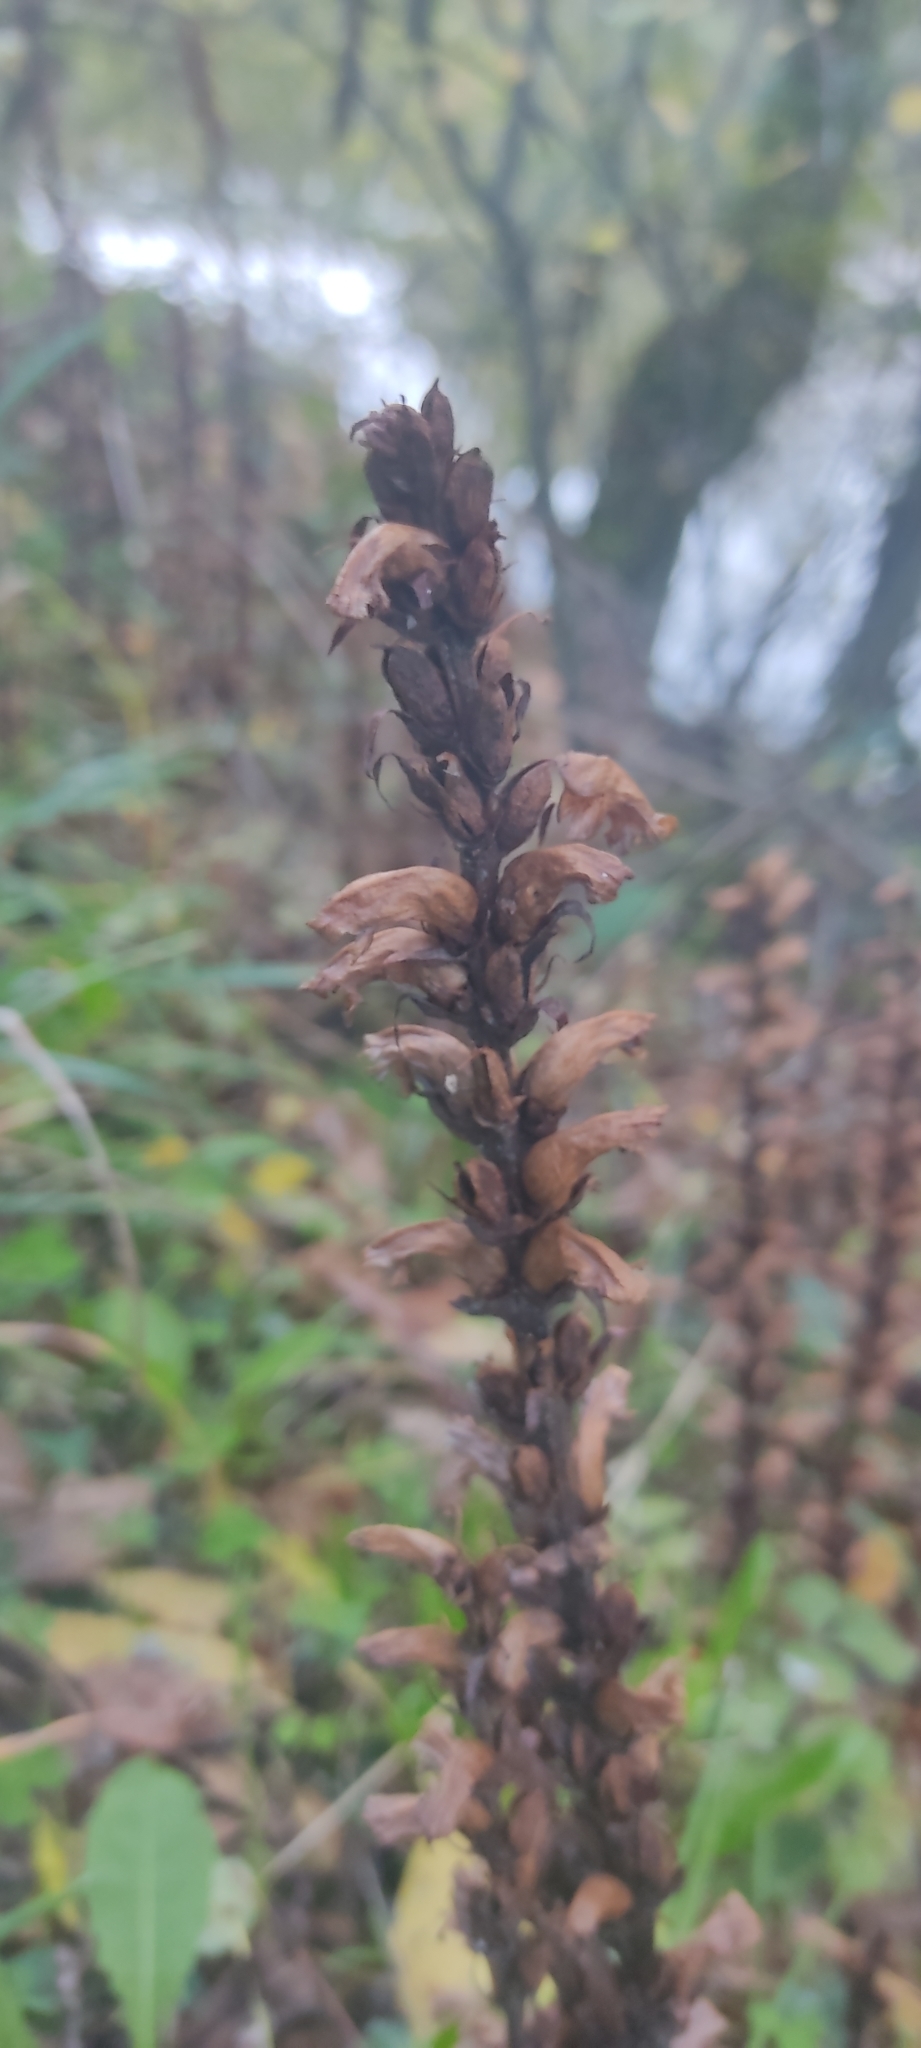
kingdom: Plantae
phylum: Tracheophyta
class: Magnoliopsida
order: Lamiales
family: Orobanchaceae
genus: Orobanche
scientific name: Orobanche hederae
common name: Ivy broomrape
